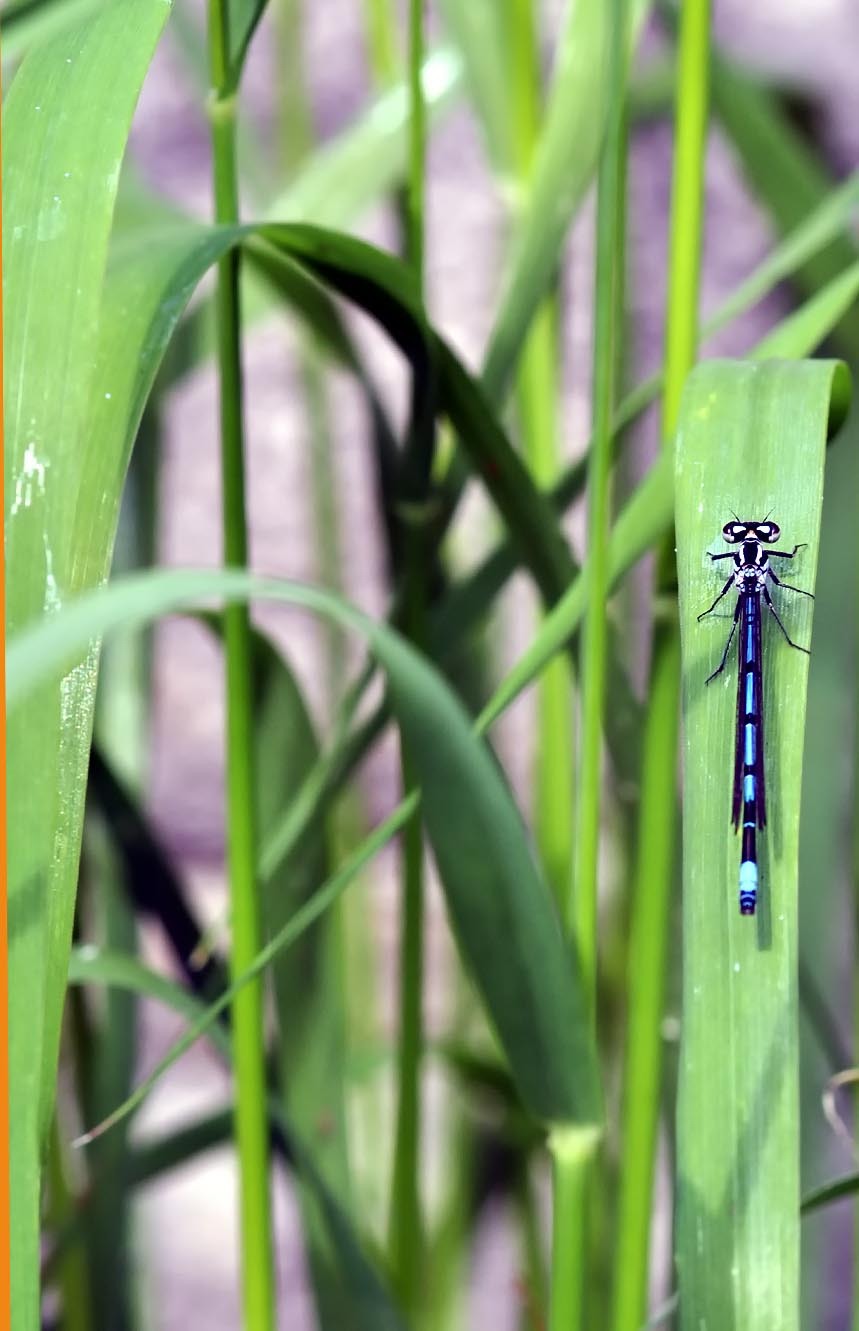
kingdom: Animalia
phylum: Arthropoda
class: Insecta
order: Odonata
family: Coenagrionidae
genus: Coenagrion
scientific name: Coenagrion puella
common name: Azure damselfly
